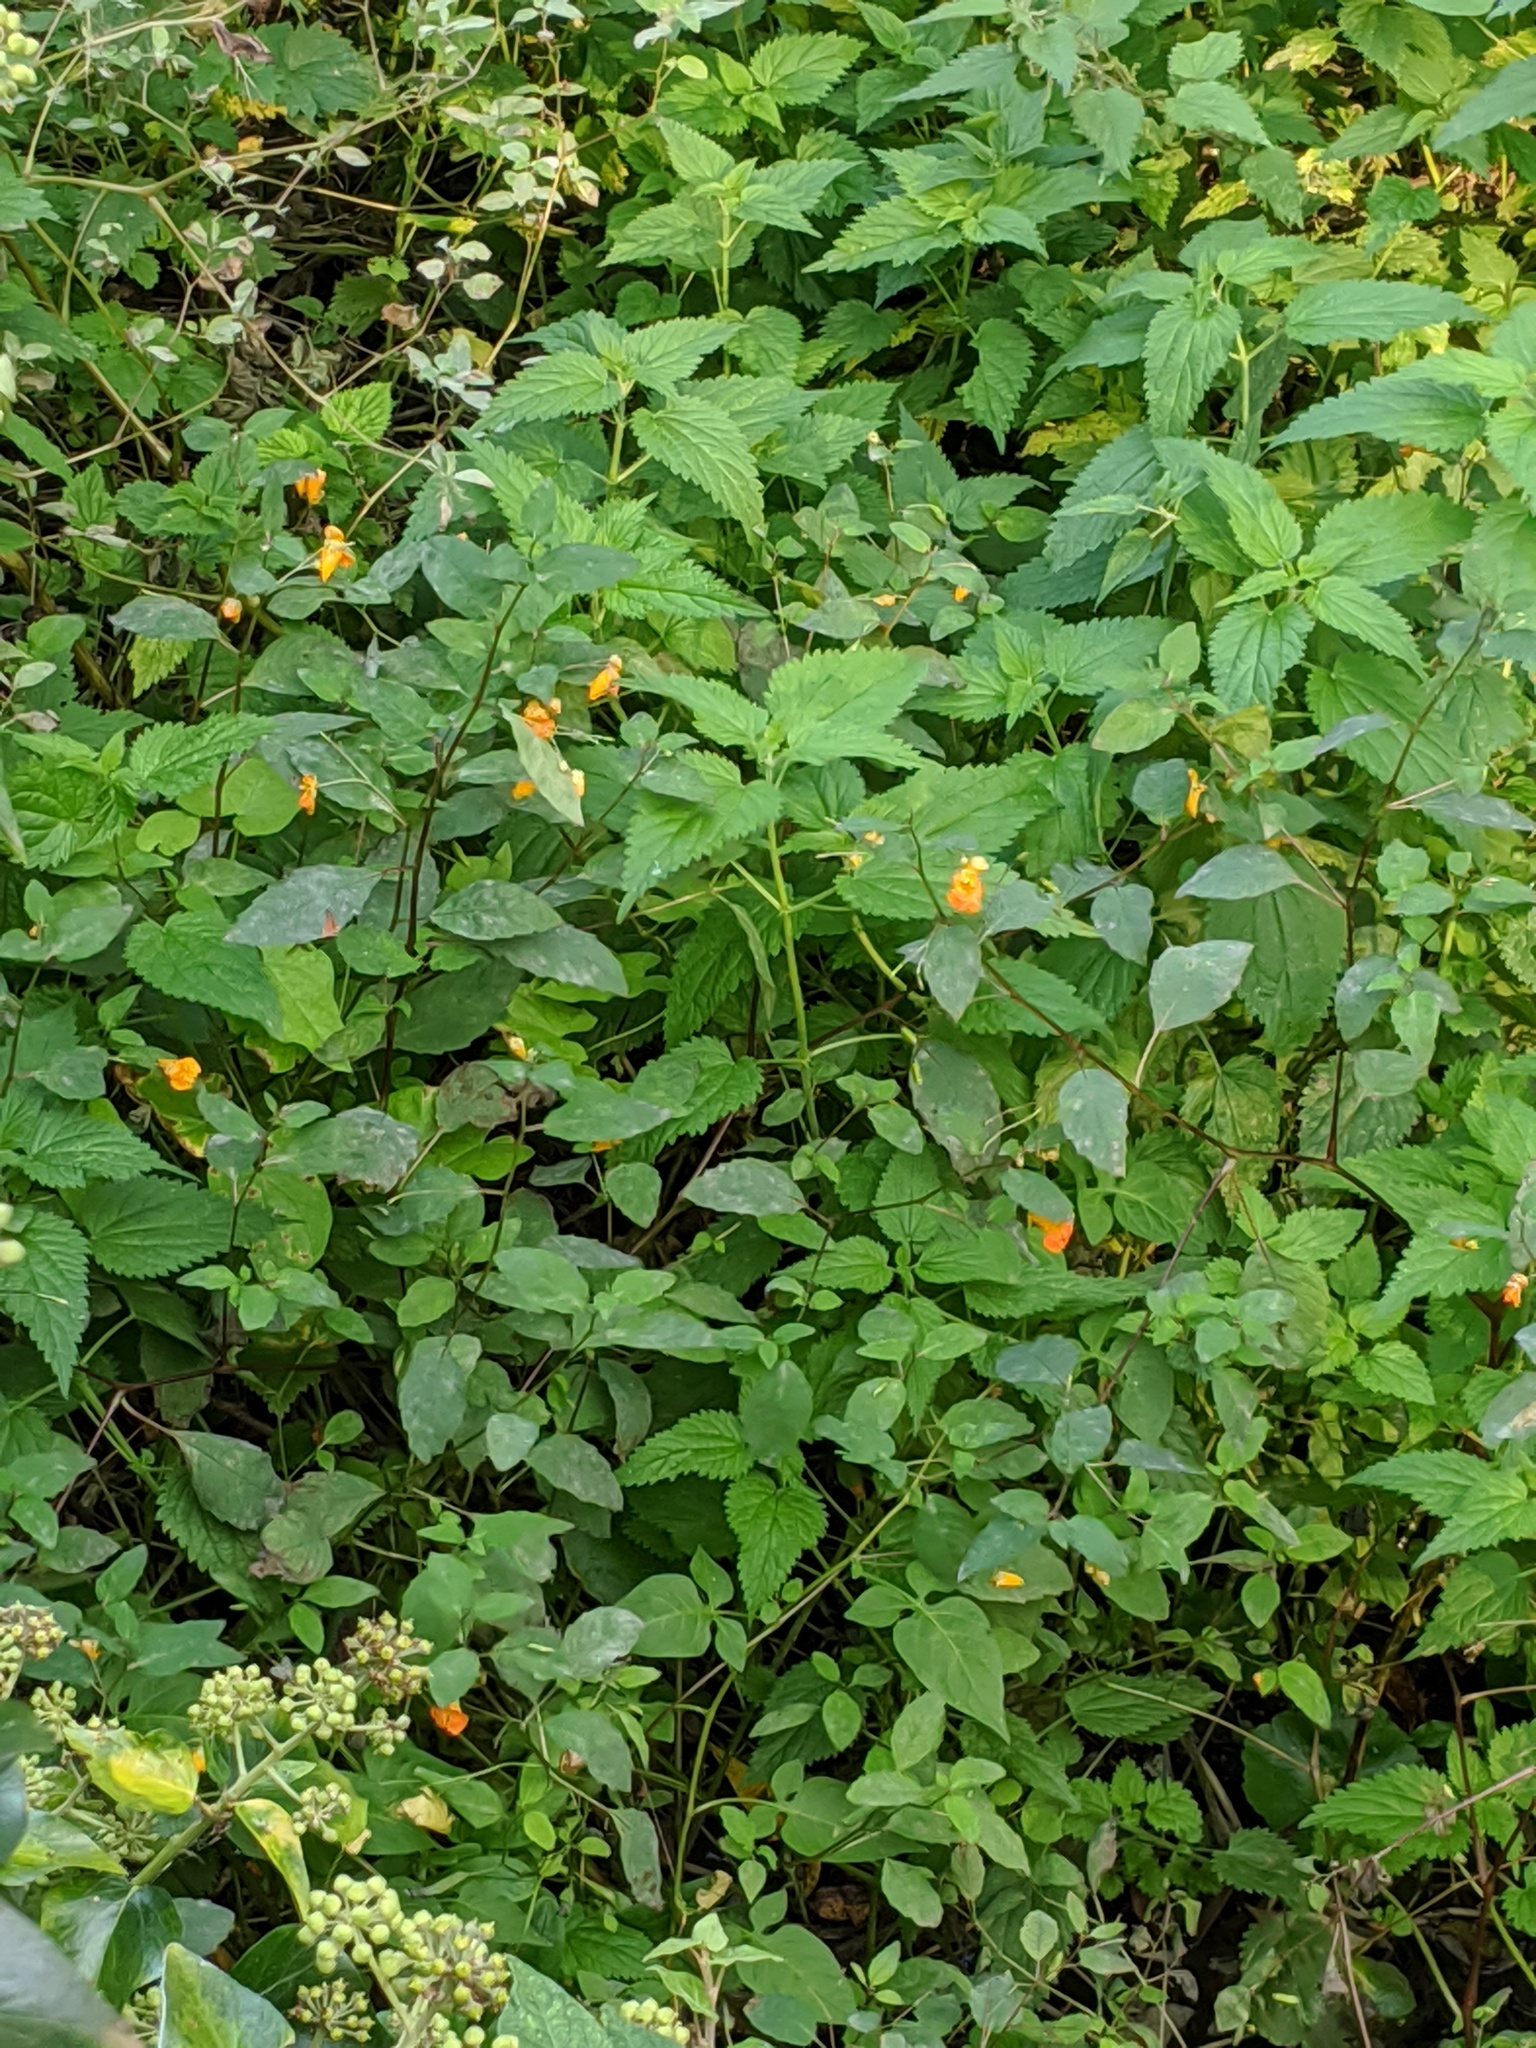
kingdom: Plantae
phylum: Tracheophyta
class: Magnoliopsida
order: Ericales
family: Balsaminaceae
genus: Impatiens
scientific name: Impatiens capensis
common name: Orange balsam
